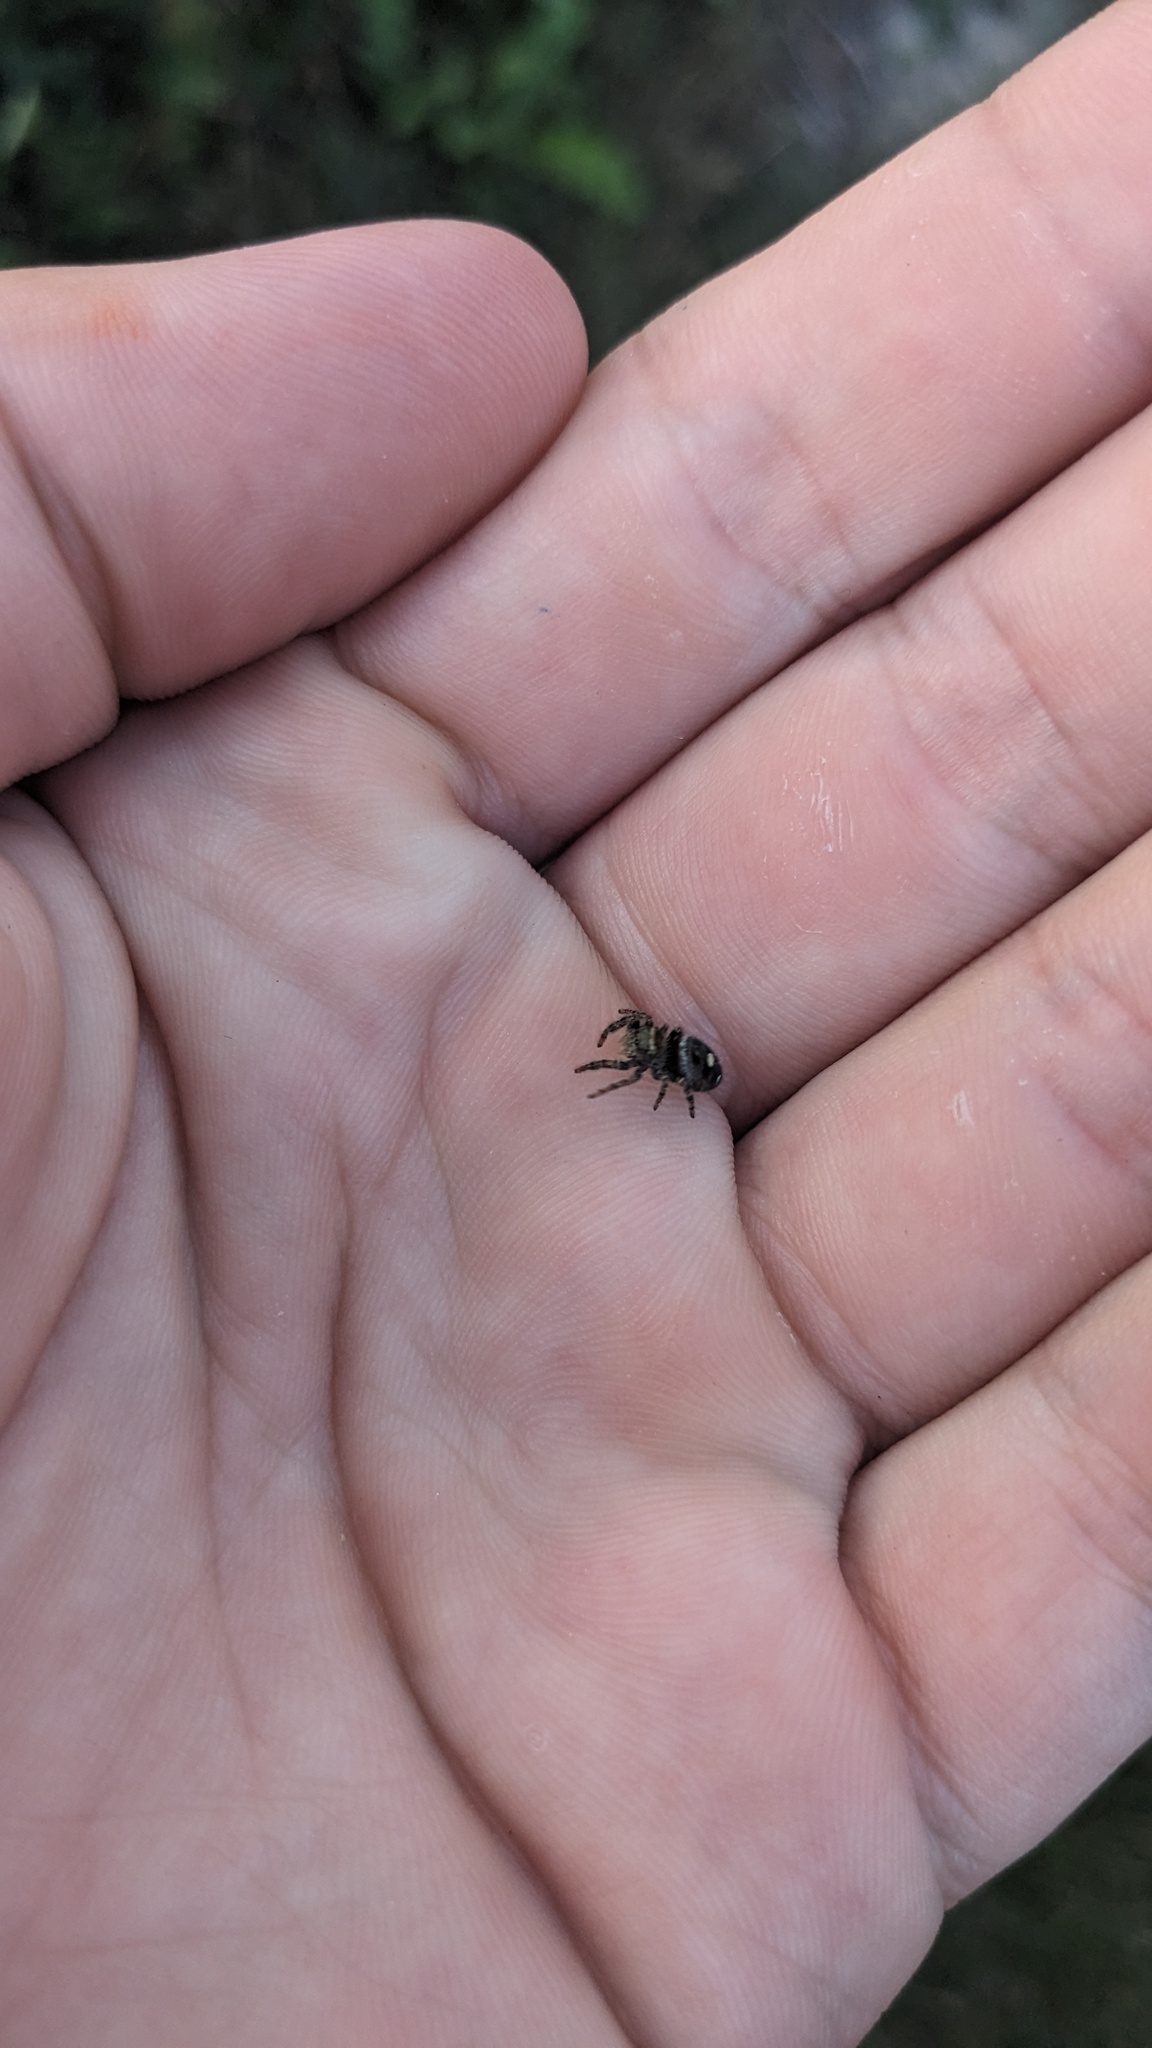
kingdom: Animalia
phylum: Arthropoda
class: Arachnida
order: Araneae
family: Salticidae
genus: Phidippus
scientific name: Phidippus audax
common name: Bold jumper
